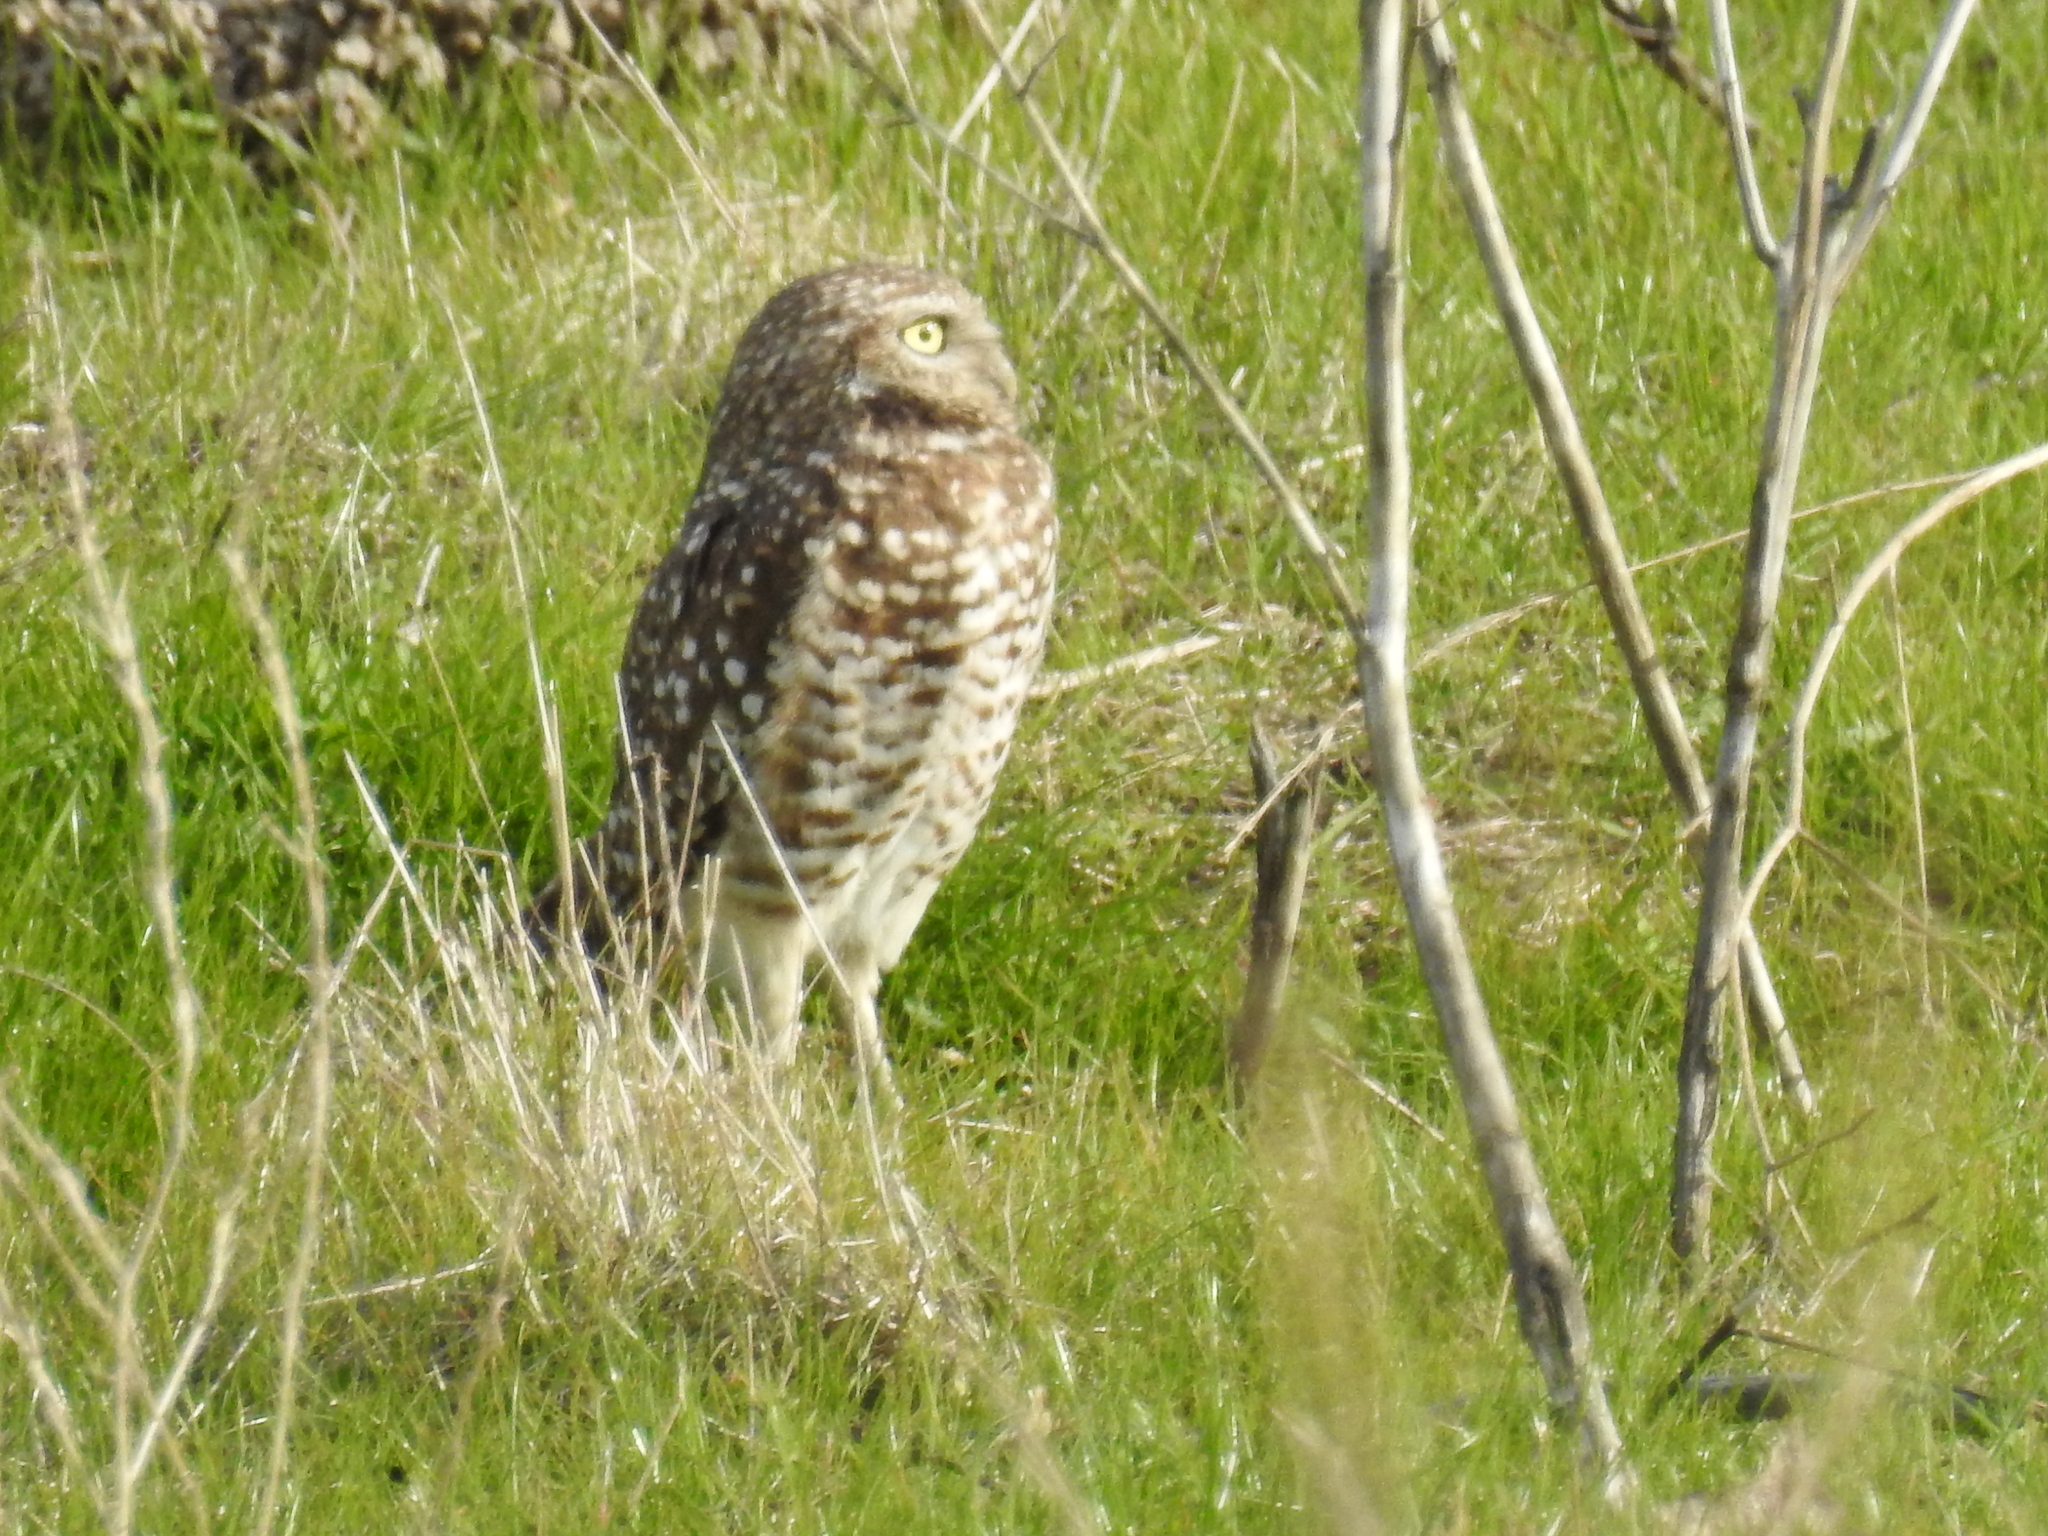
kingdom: Animalia
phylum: Chordata
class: Aves
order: Strigiformes
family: Strigidae
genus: Athene
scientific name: Athene cunicularia
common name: Burrowing owl
